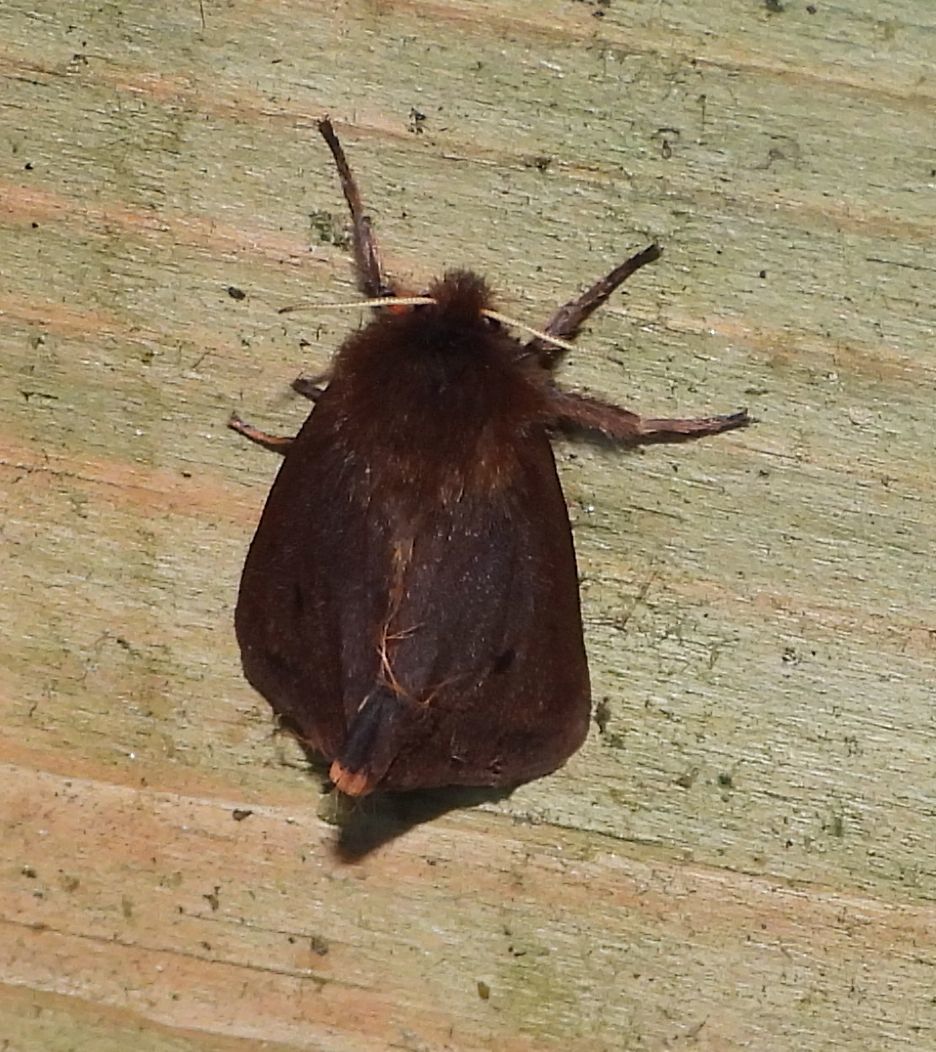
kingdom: Animalia
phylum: Arthropoda
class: Insecta
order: Lepidoptera
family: Erebidae
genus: Phragmatobia
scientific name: Phragmatobia fuliginosa
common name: Ruby tiger
